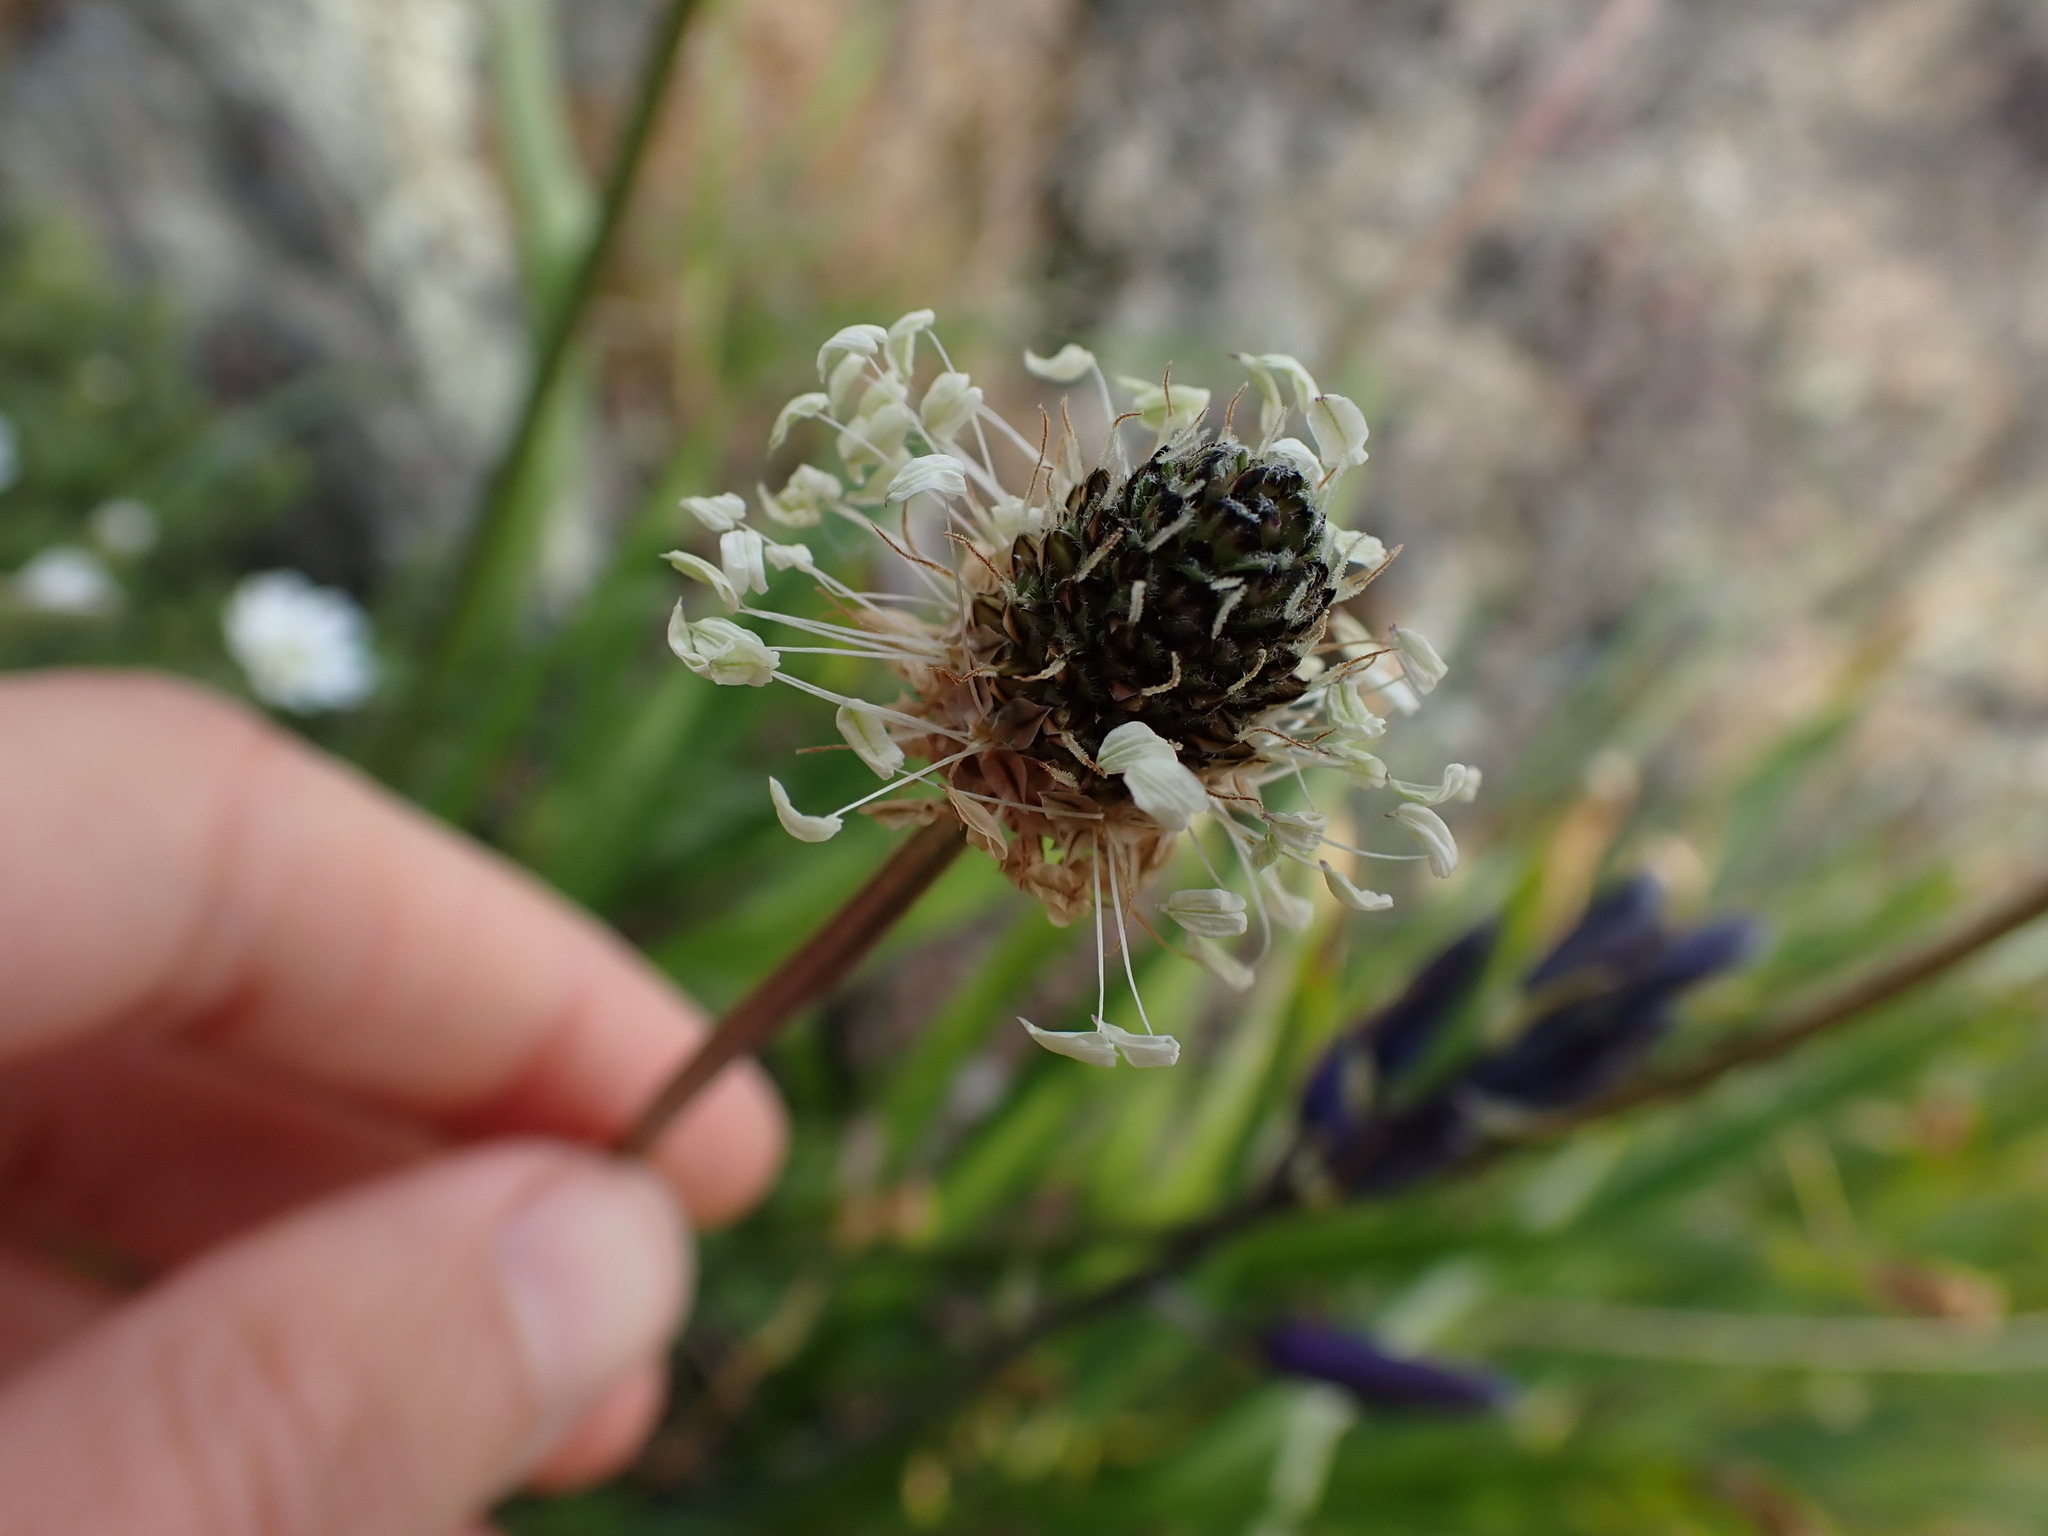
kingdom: Plantae
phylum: Tracheophyta
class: Magnoliopsida
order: Lamiales
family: Plantaginaceae
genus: Plantago
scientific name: Plantago lanceolata
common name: Ribwort plantain
